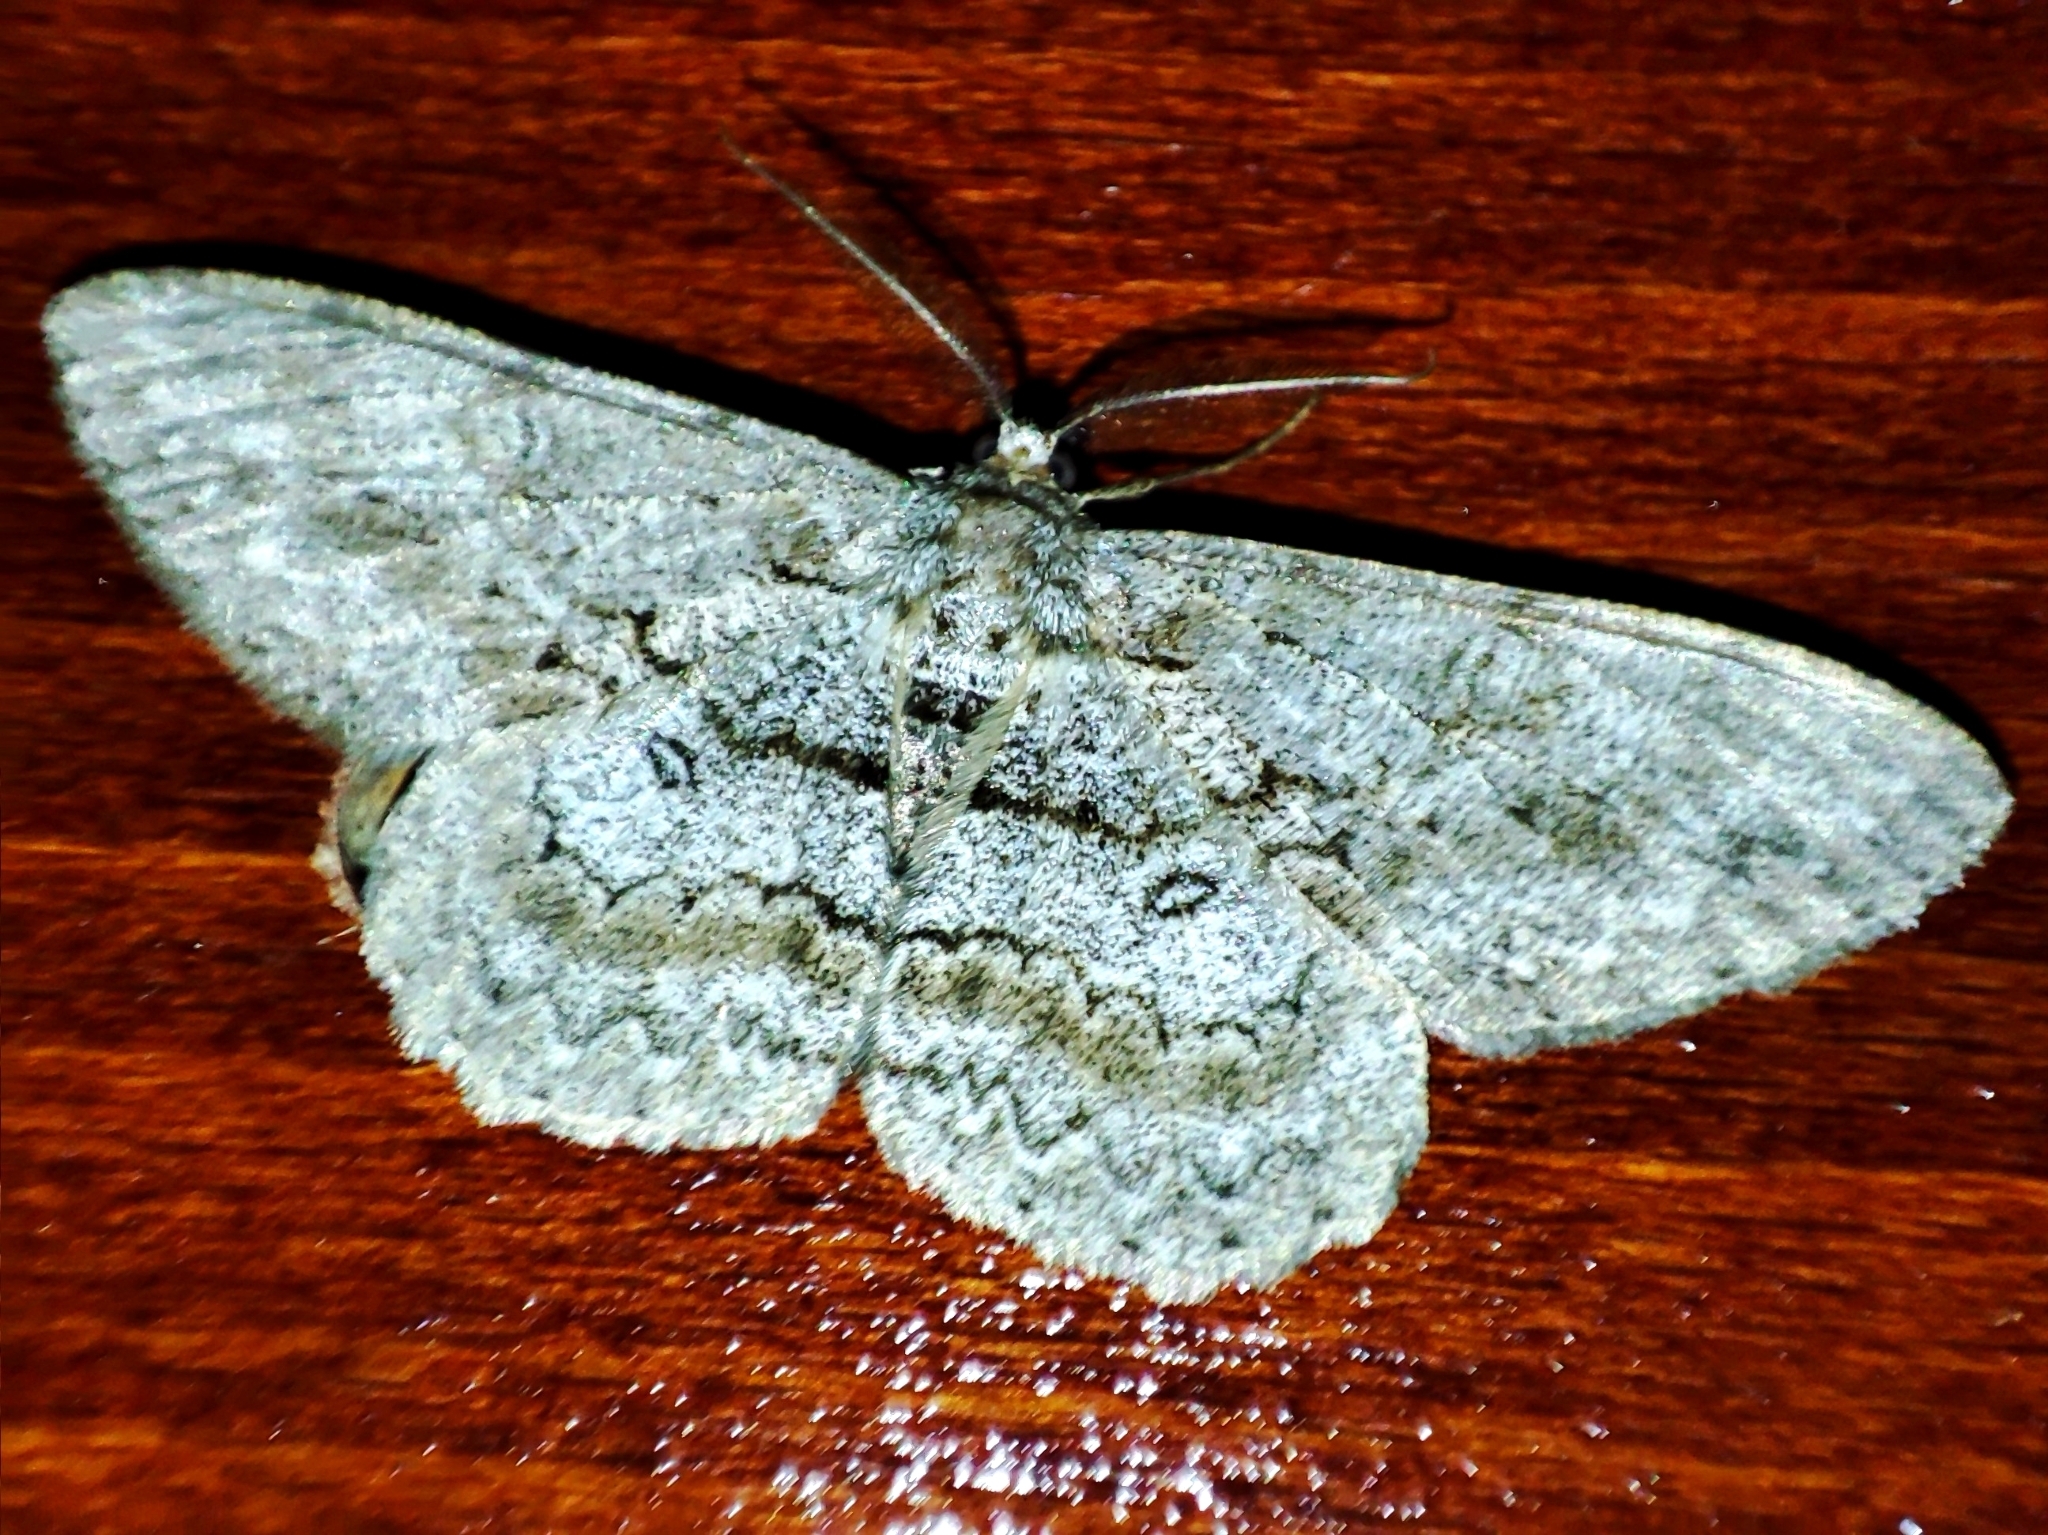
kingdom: Animalia
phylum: Arthropoda
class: Insecta
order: Lepidoptera
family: Geometridae
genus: Hypomecis
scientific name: Hypomecis punctinalis
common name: Pale oak beauty
